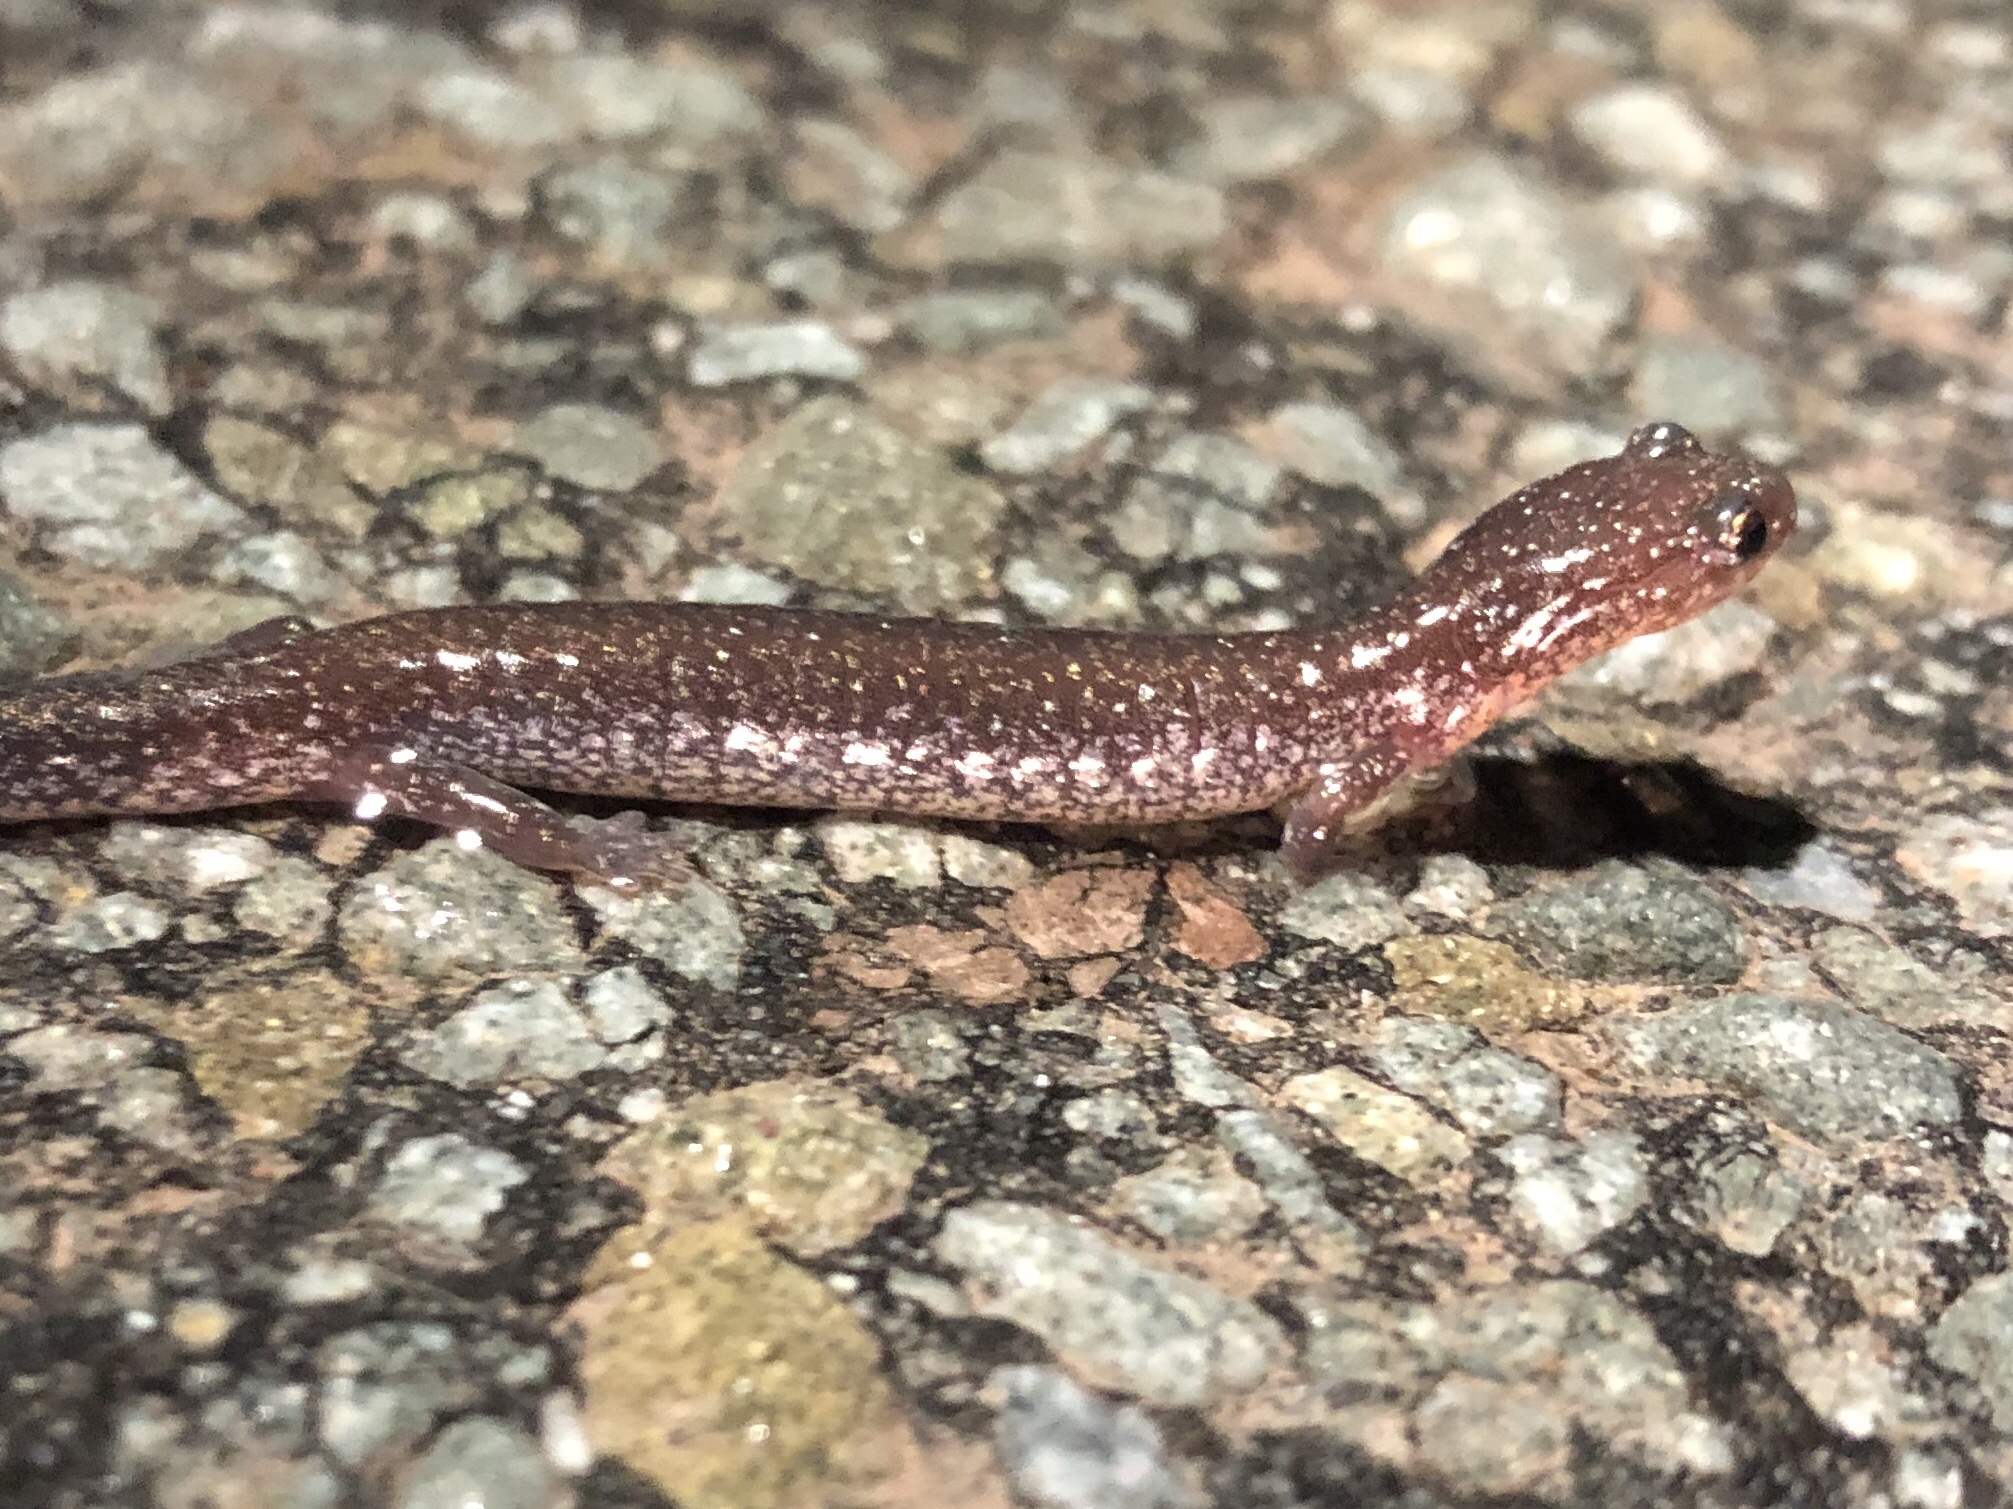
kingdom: Animalia
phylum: Chordata
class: Amphibia
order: Caudata
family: Plethodontidae
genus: Plethodon
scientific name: Plethodon cinereus
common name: Redback salamander
